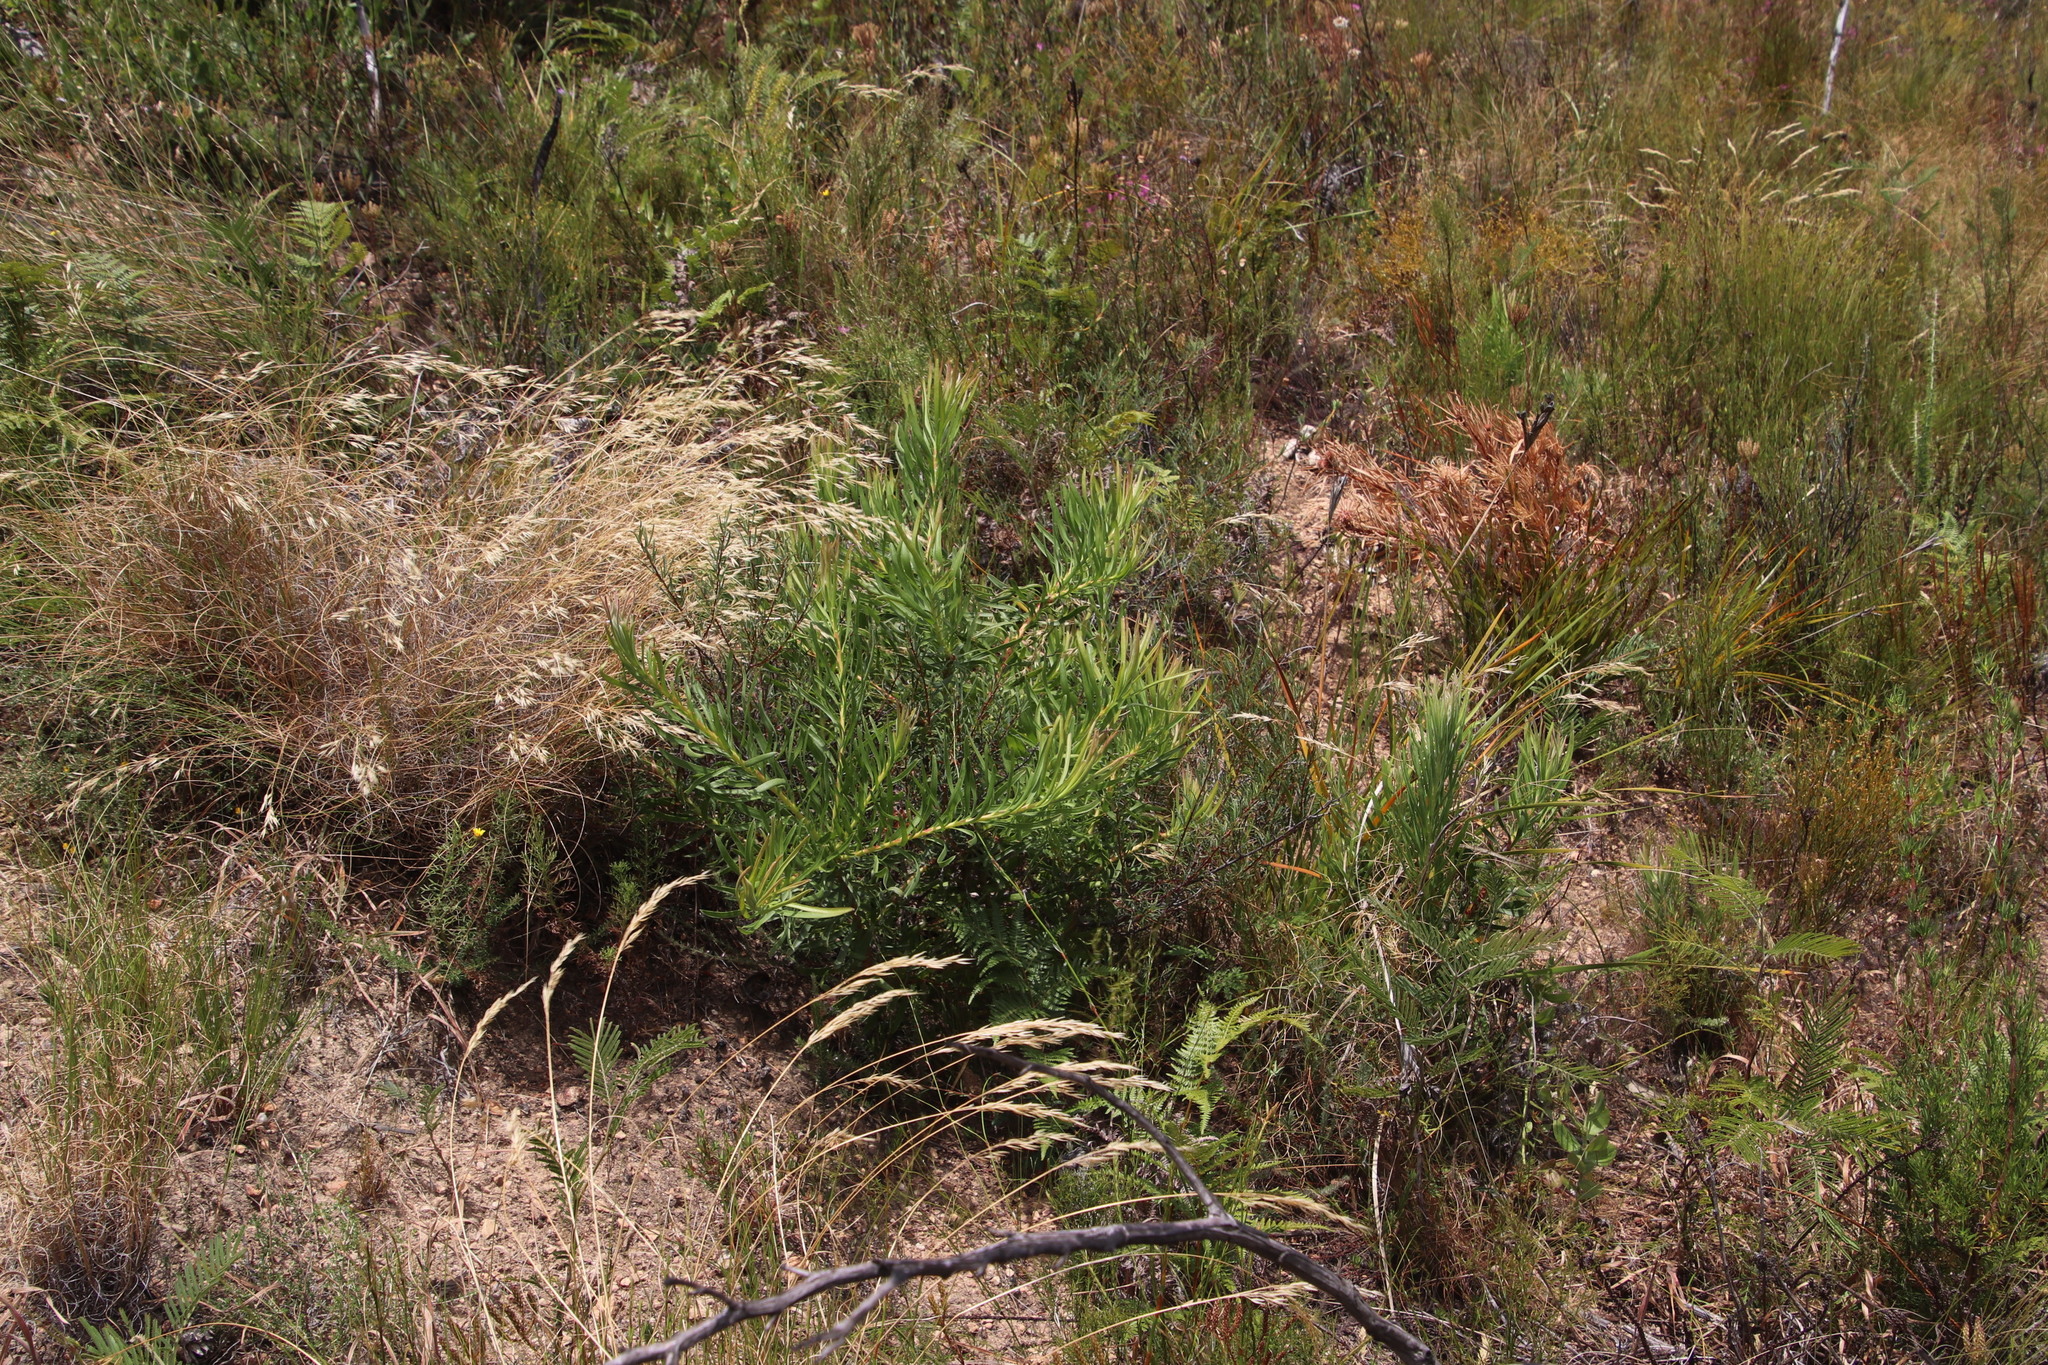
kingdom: Plantae
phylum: Tracheophyta
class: Magnoliopsida
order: Proteales
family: Proteaceae
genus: Leucospermum
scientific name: Leucospermum lineare
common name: Needle-leaf pincushion
